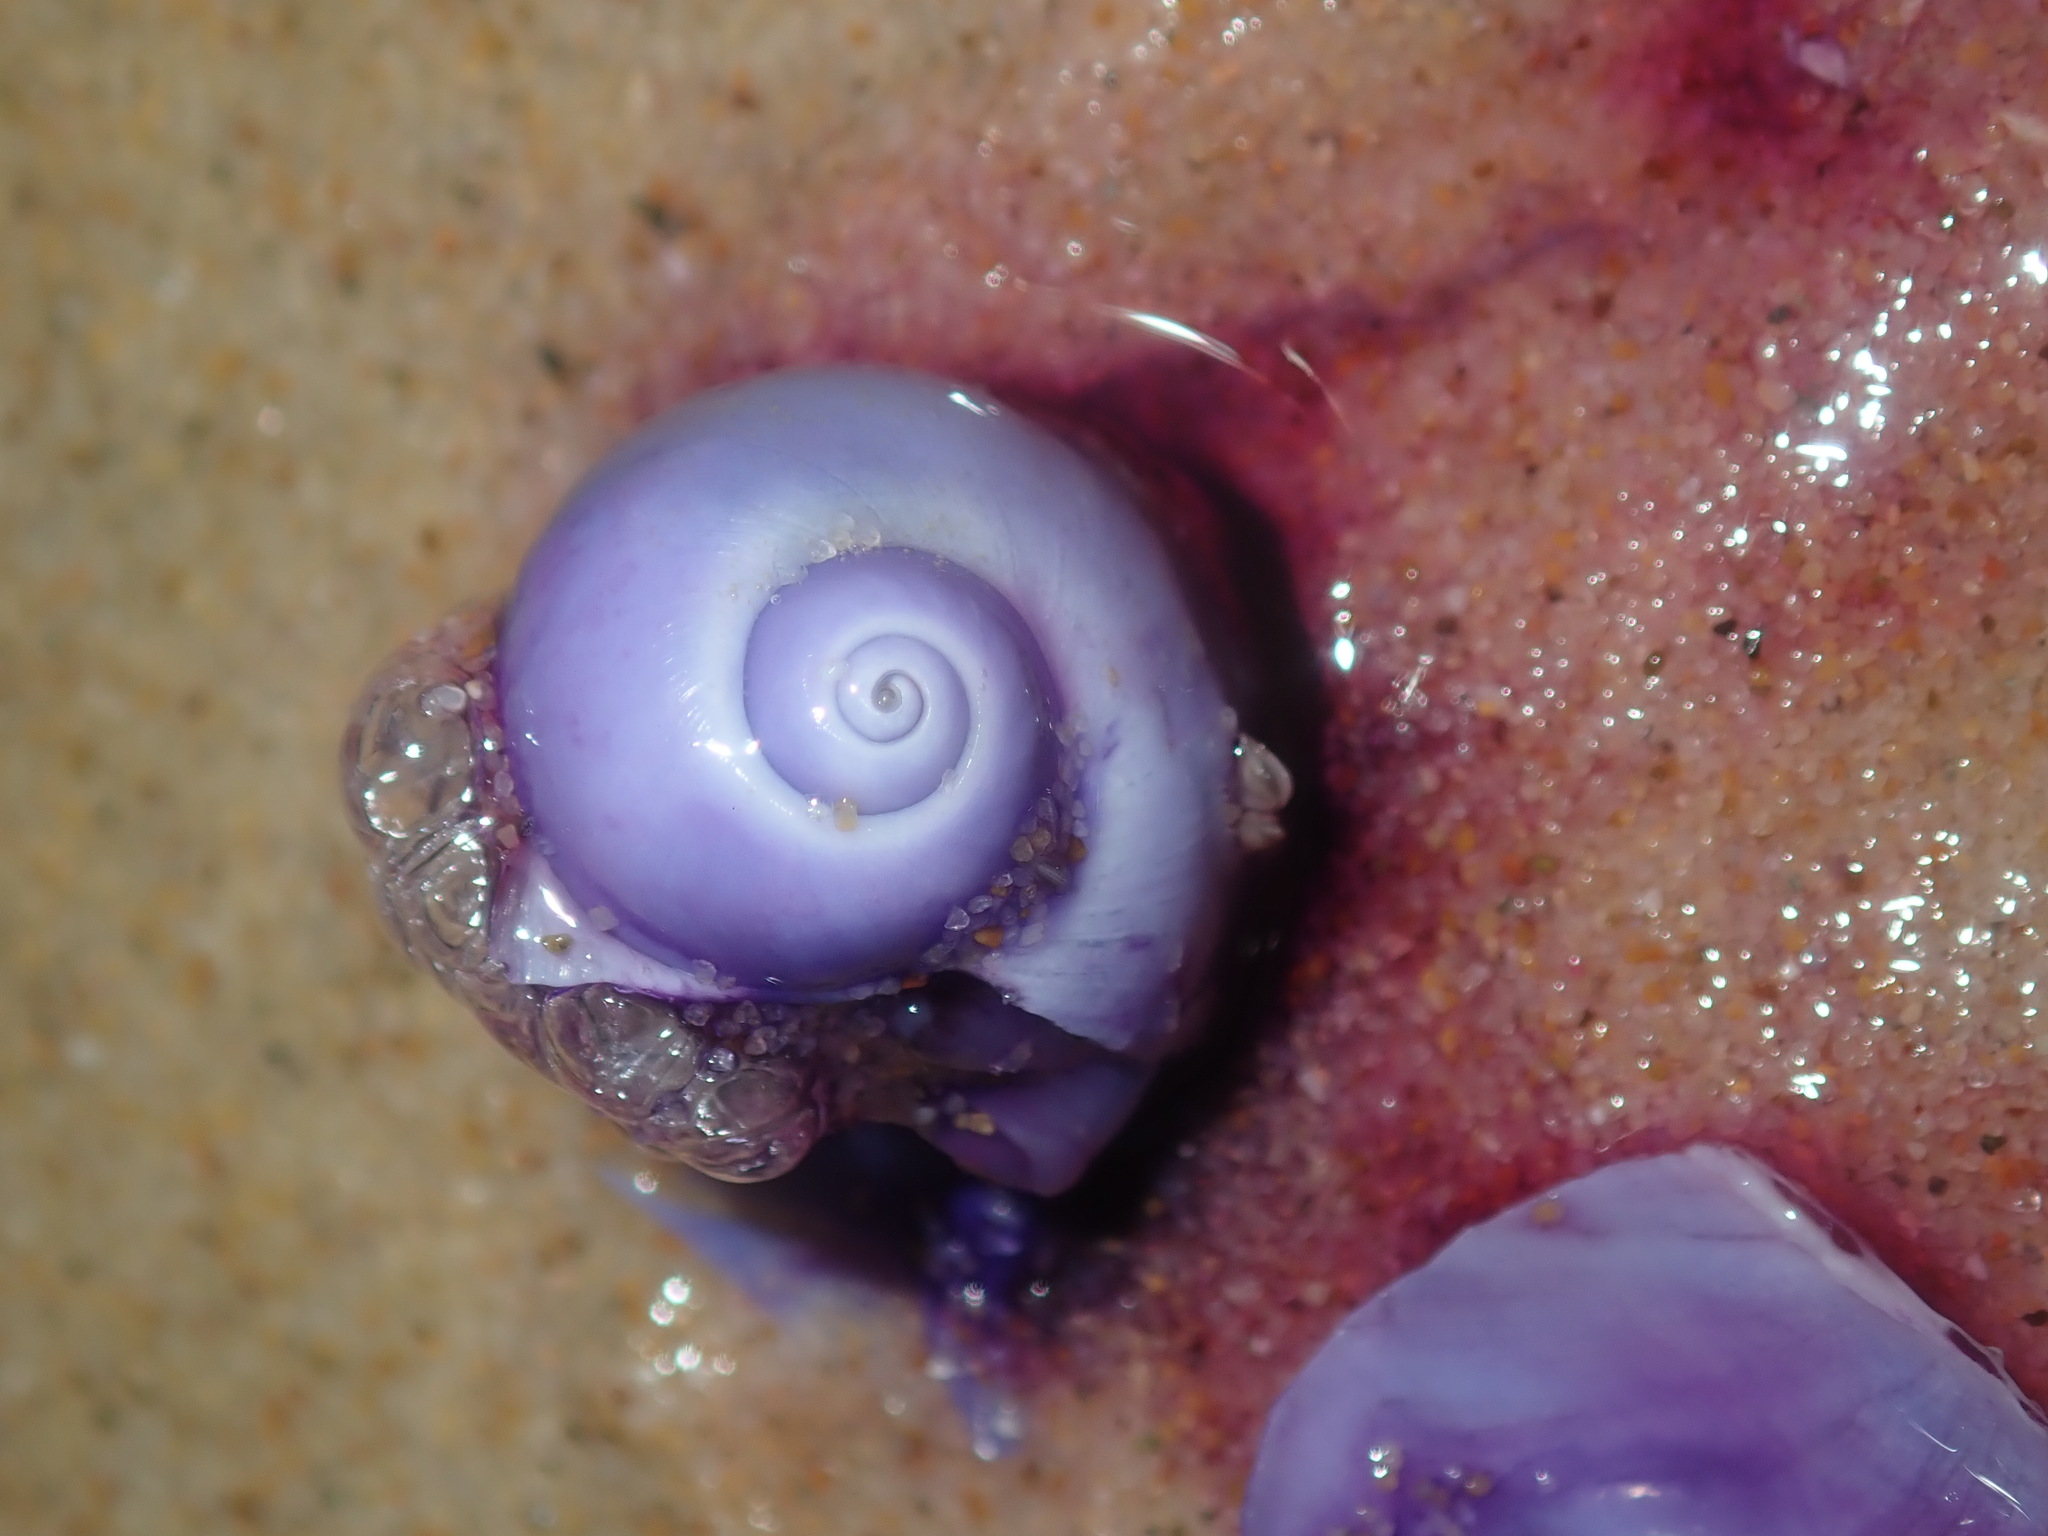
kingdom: Animalia
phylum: Mollusca
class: Gastropoda
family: Epitoniidae
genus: Janthina
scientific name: Janthina globosa
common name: Elongate janthina
